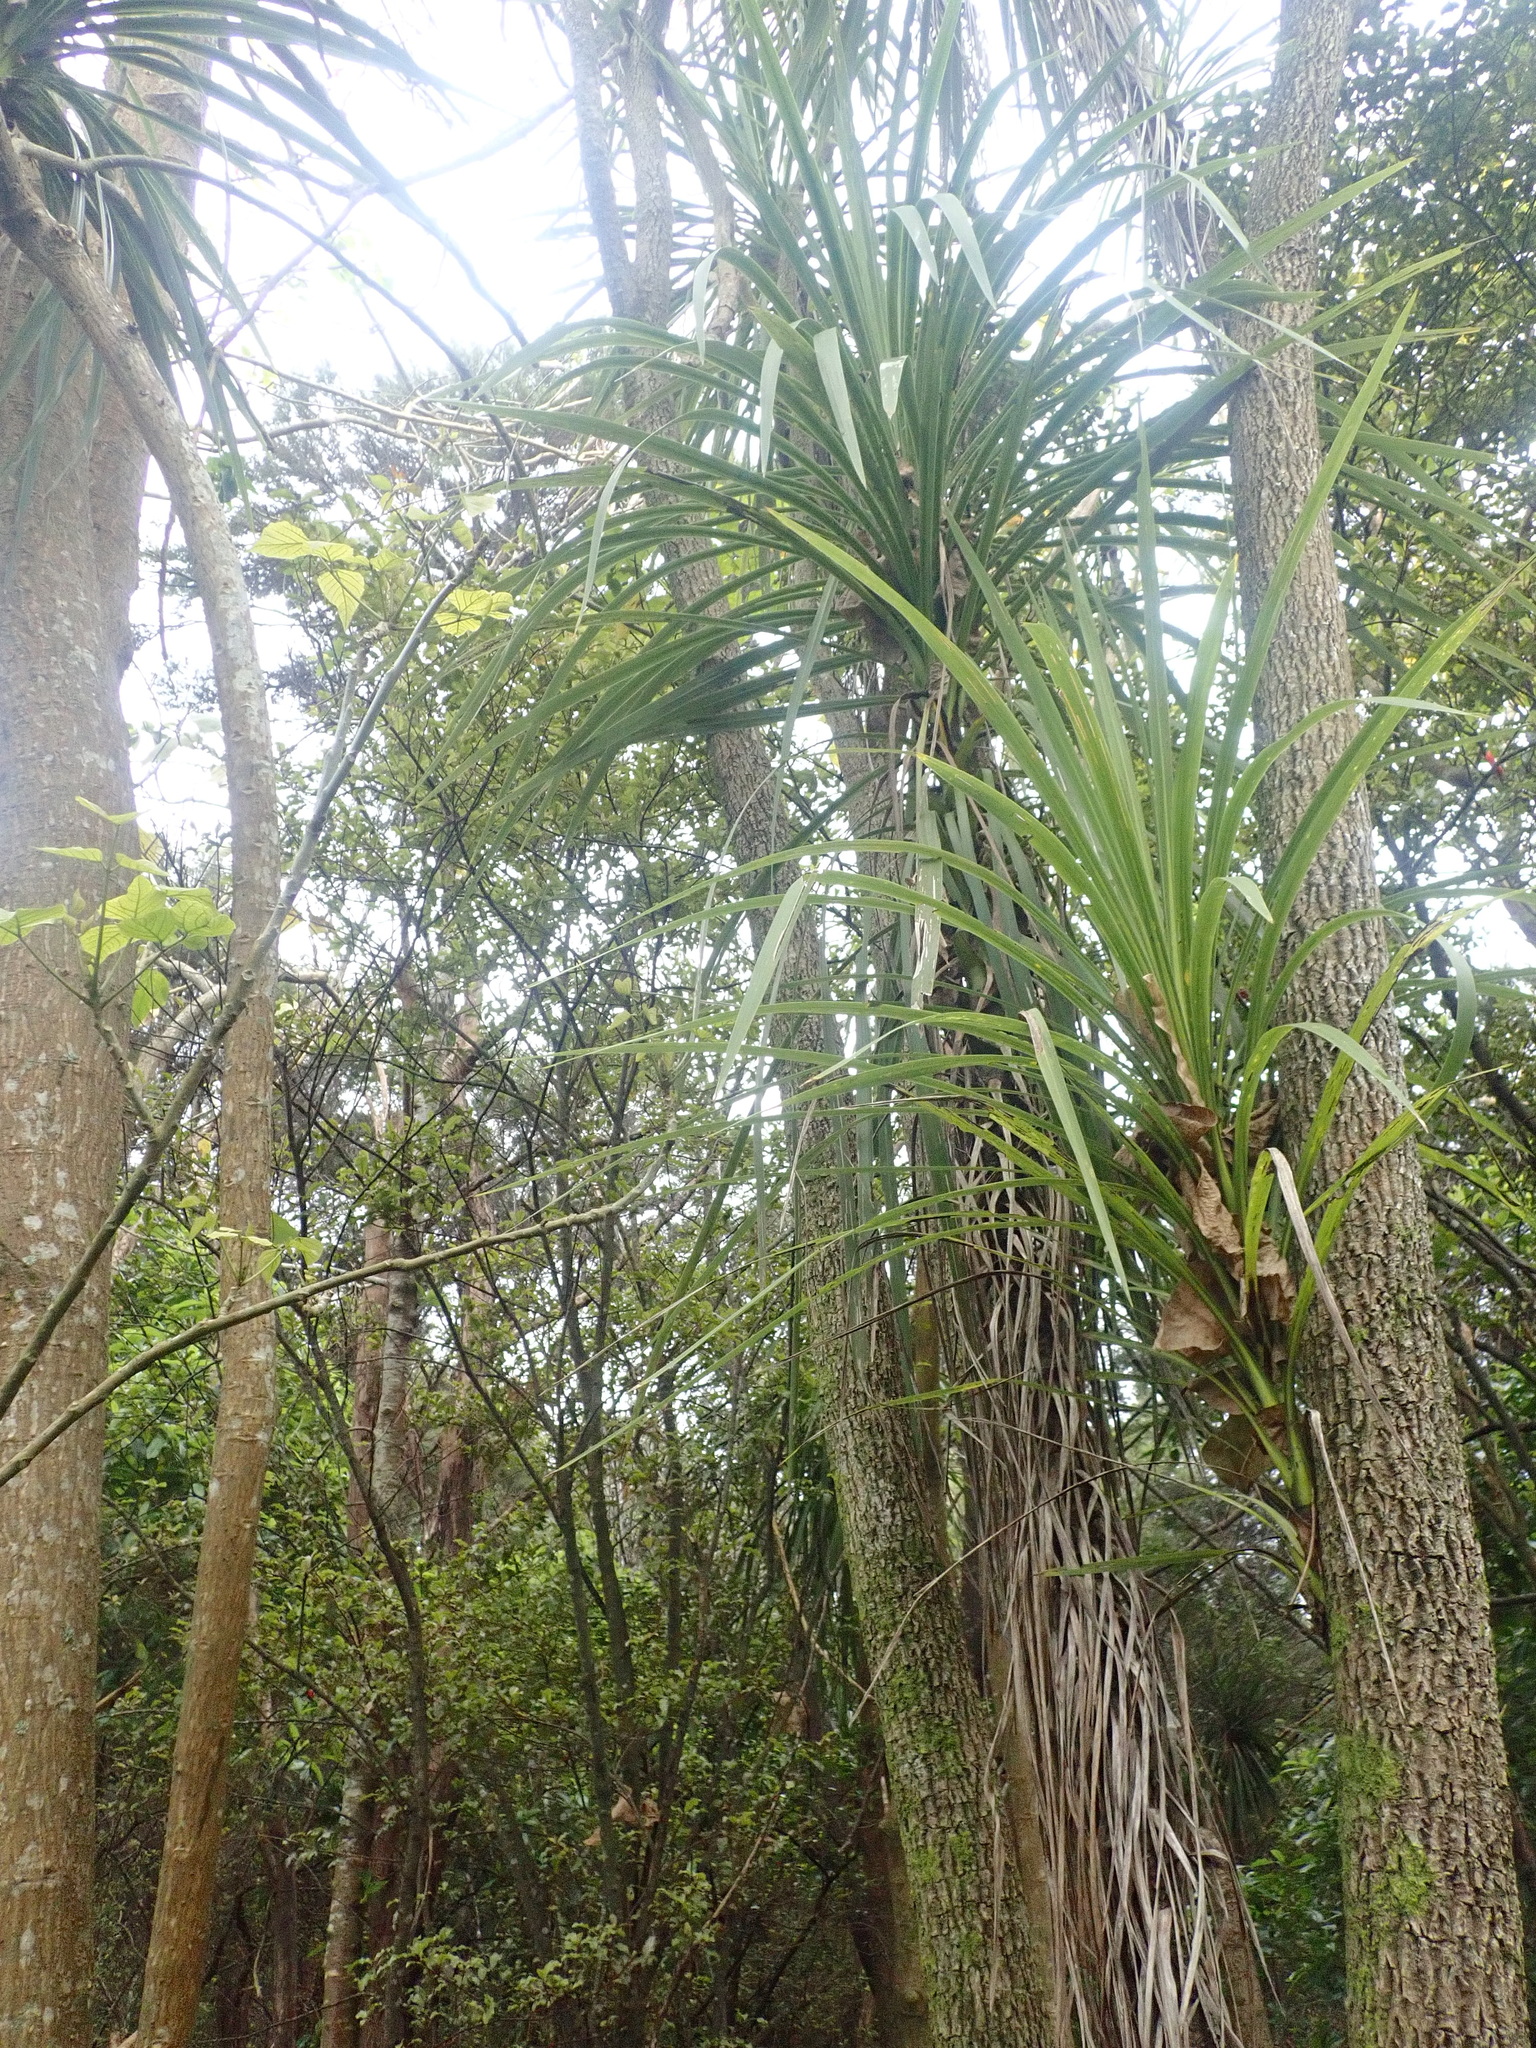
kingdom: Plantae
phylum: Tracheophyta
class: Liliopsida
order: Asparagales
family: Asparagaceae
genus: Cordyline
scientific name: Cordyline australis
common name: Cabbage-palm
